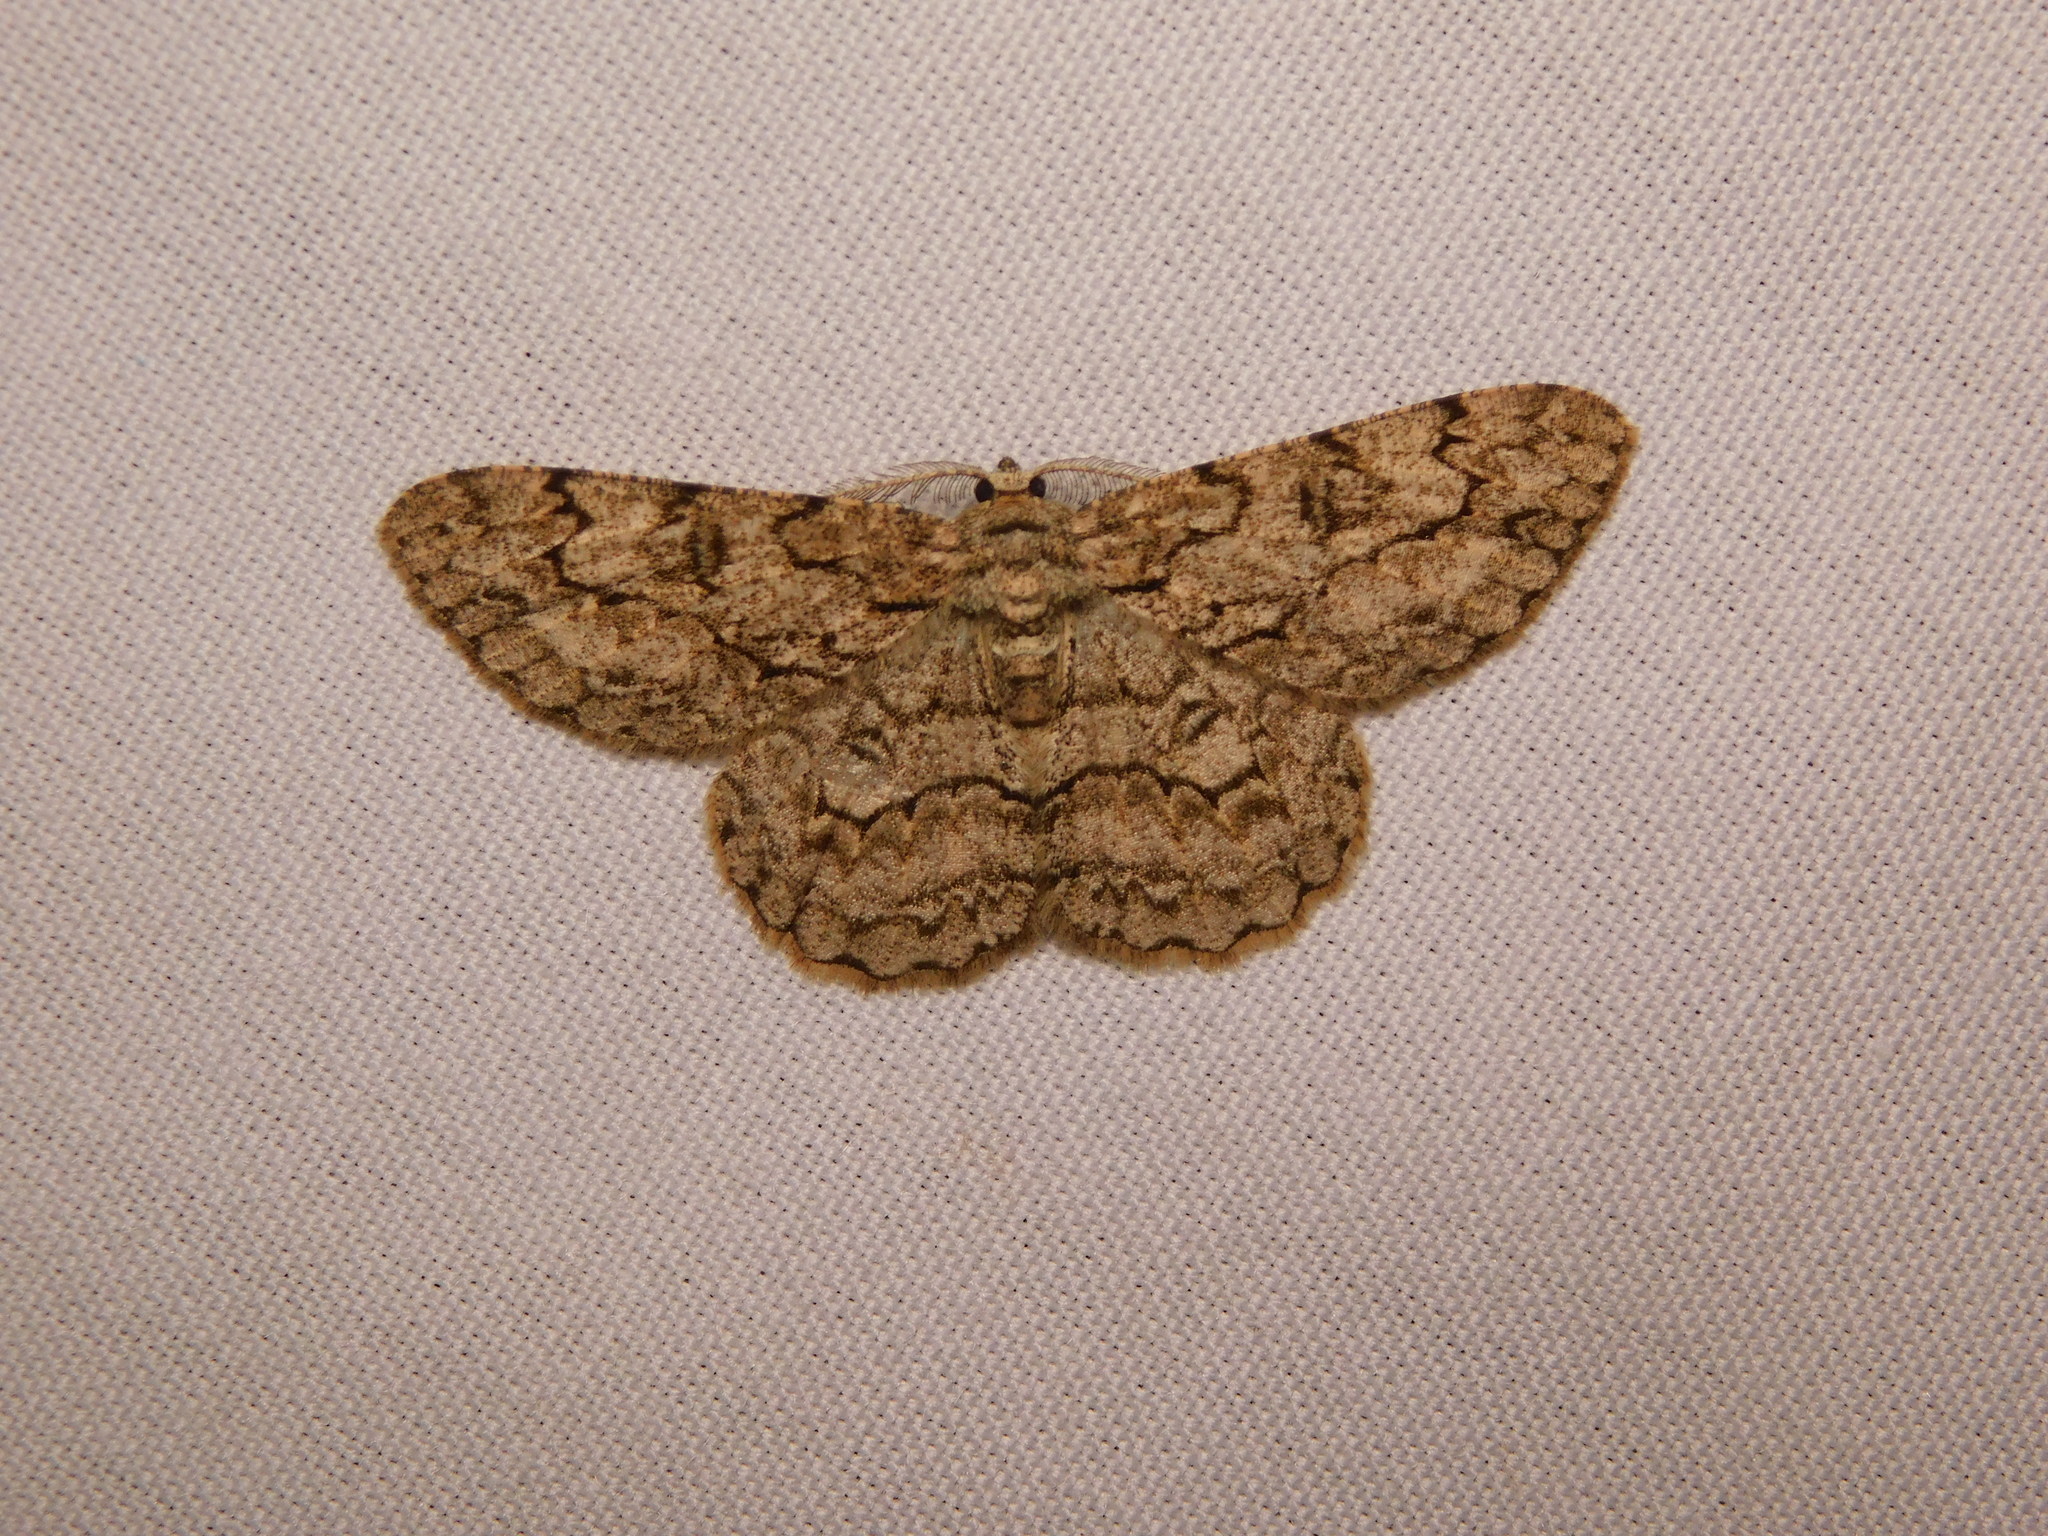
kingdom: Animalia
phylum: Arthropoda
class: Insecta
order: Lepidoptera
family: Geometridae
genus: Hypomecis
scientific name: Hypomecis transcissa
